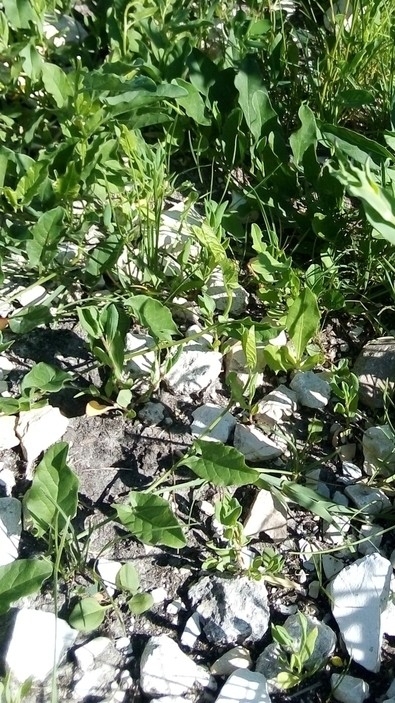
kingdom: Plantae
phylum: Tracheophyta
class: Magnoliopsida
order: Solanales
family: Convolvulaceae
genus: Convolvulus
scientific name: Convolvulus arvensis
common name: Field bindweed
